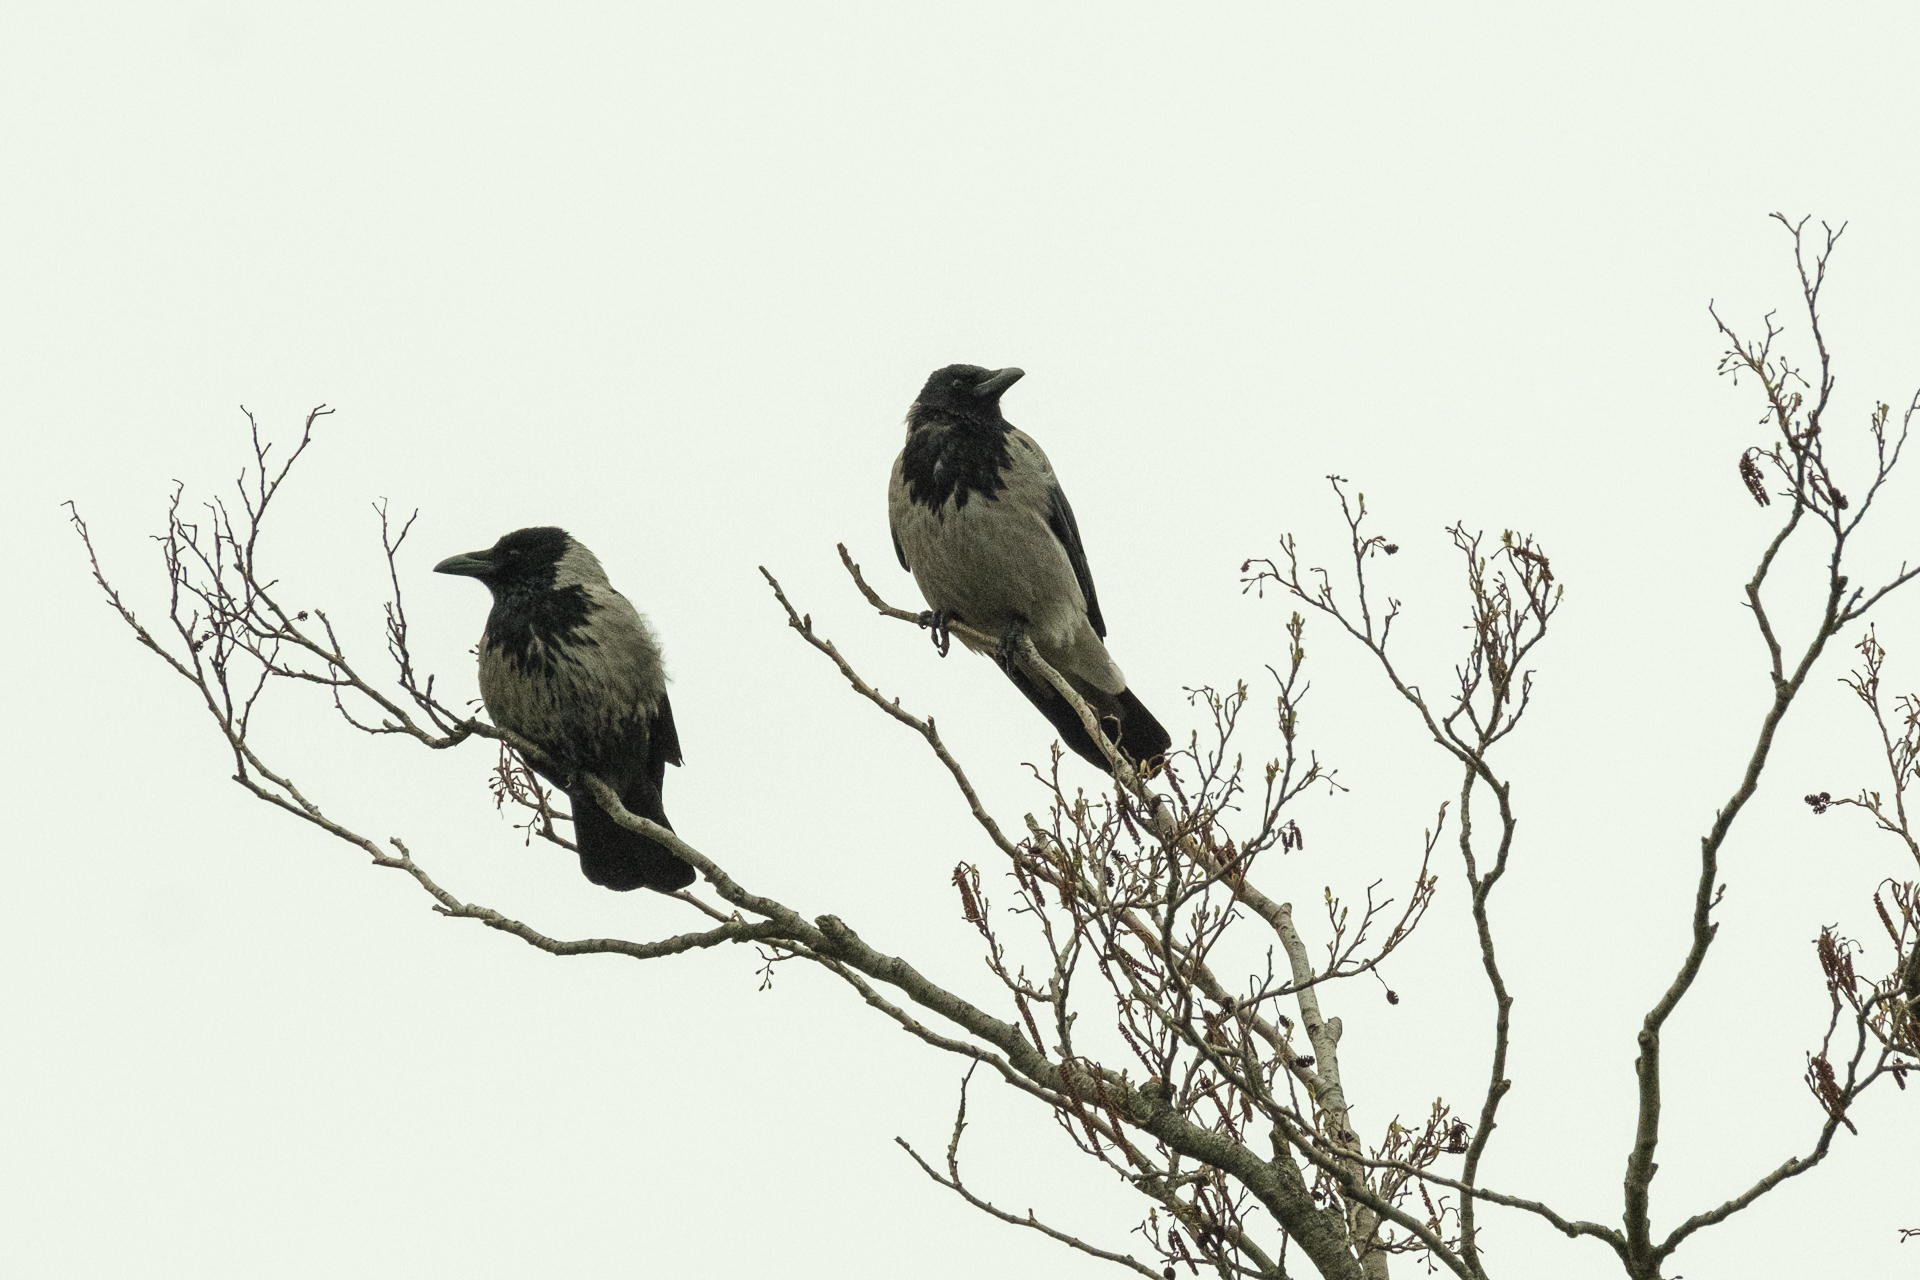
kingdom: Animalia
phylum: Chordata
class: Aves
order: Passeriformes
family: Corvidae
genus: Corvus
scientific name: Corvus cornix
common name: Hooded crow
